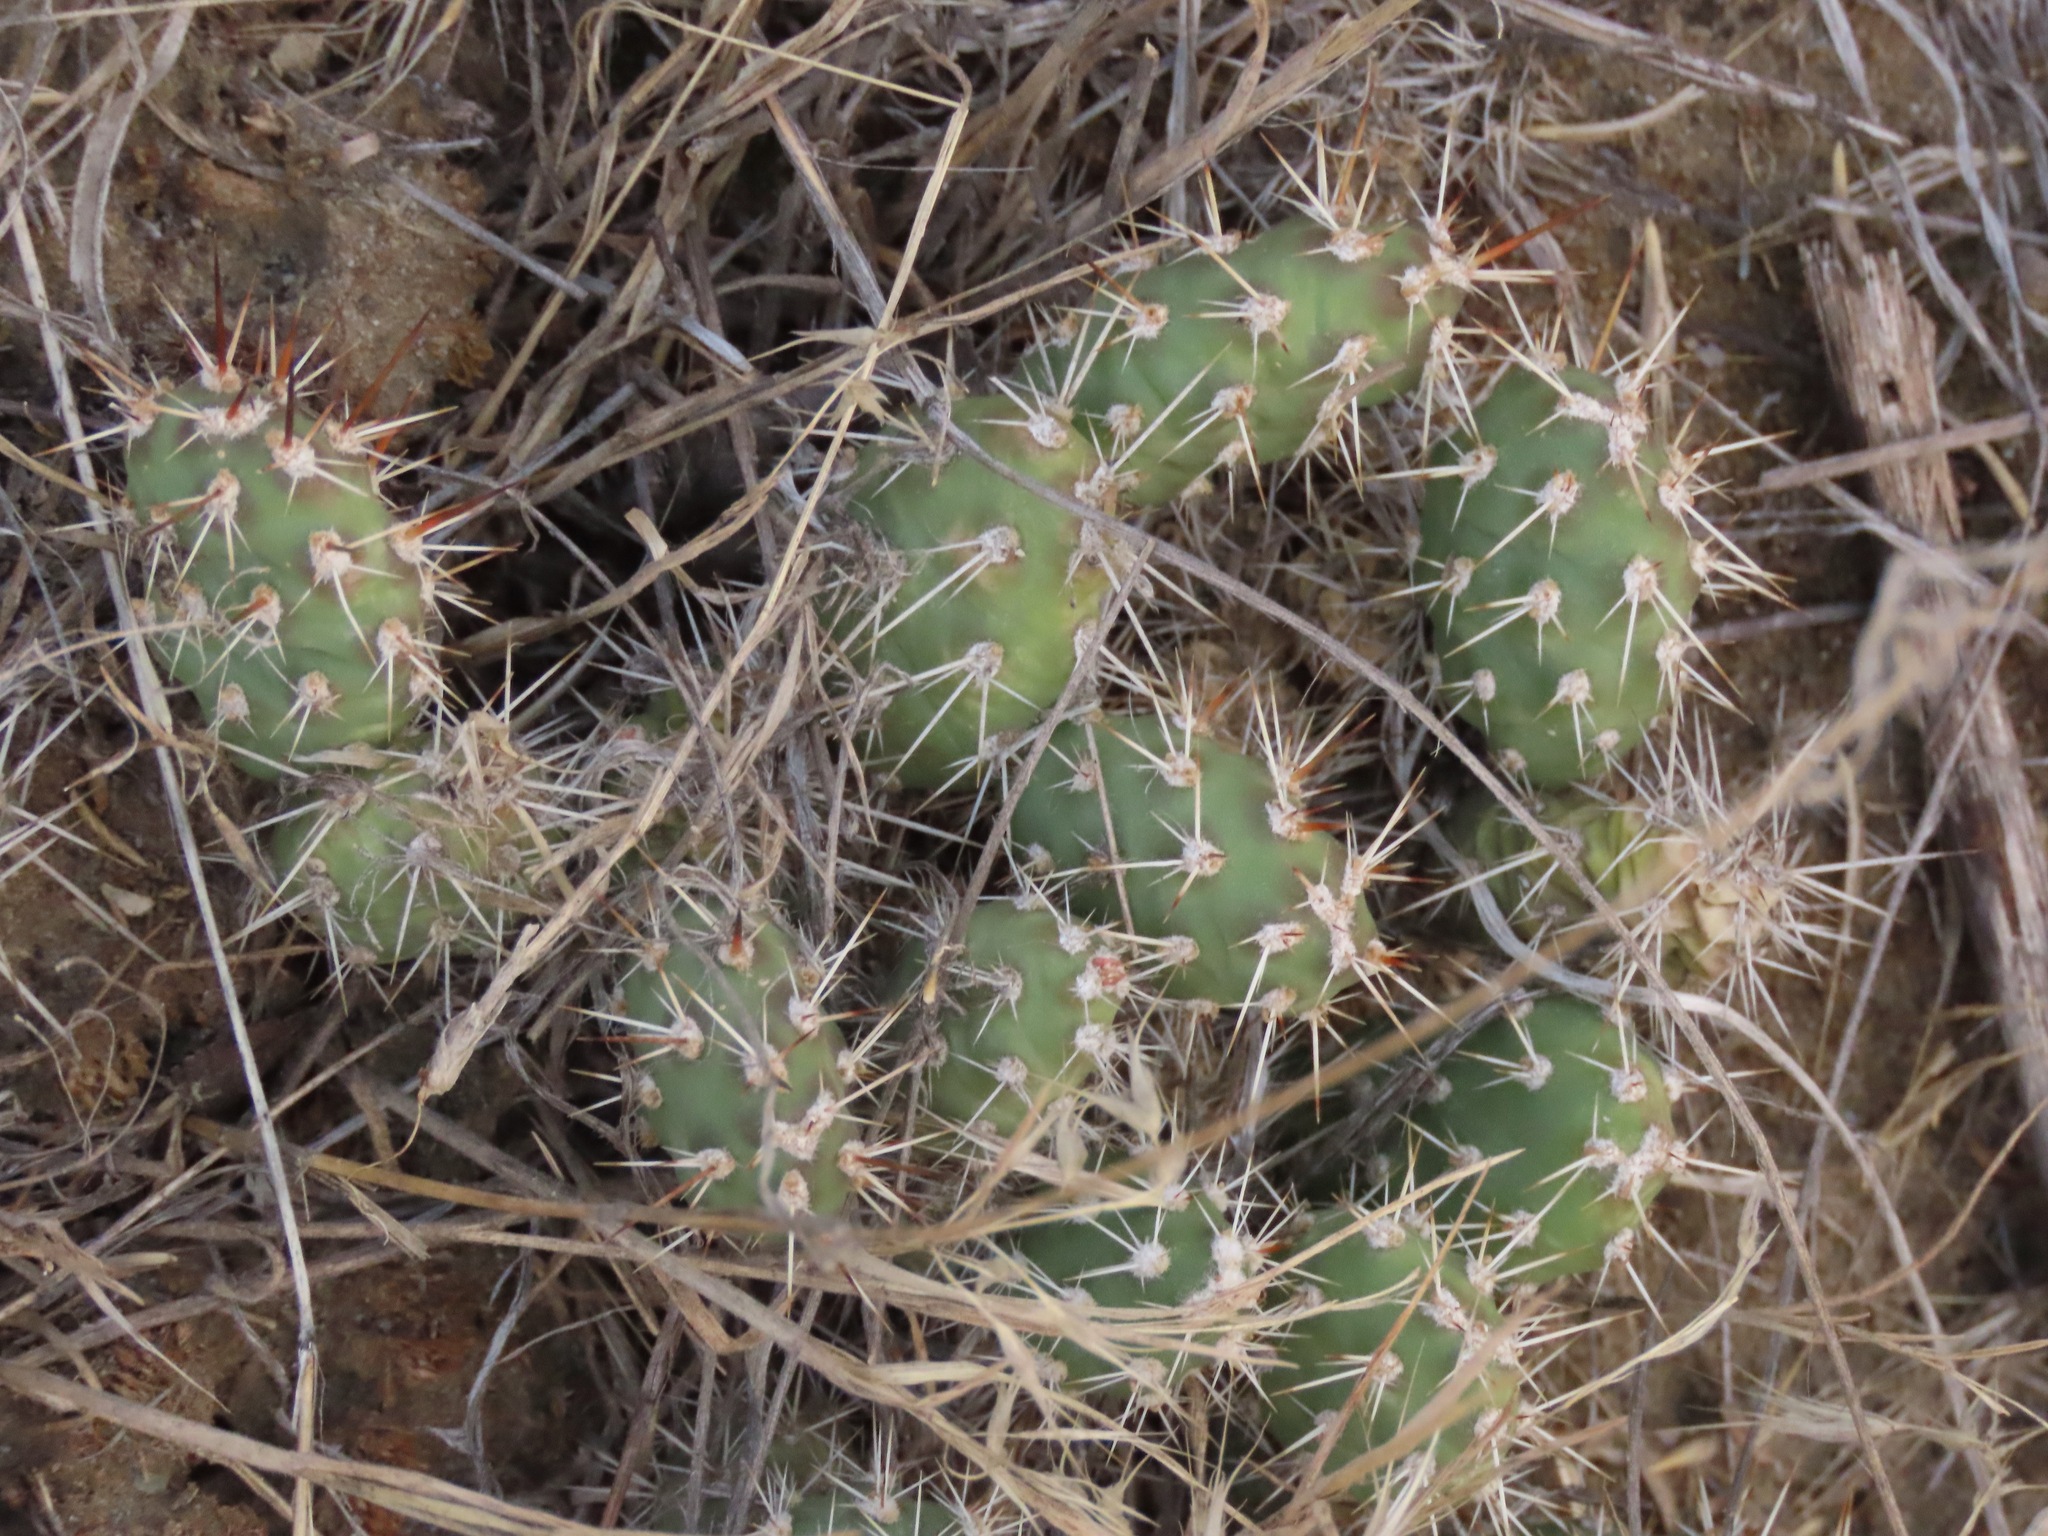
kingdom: Plantae
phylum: Tracheophyta
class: Magnoliopsida
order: Caryophyllales
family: Cactaceae
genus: Opuntia
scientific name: Opuntia fragilis
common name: Brittle cactus
